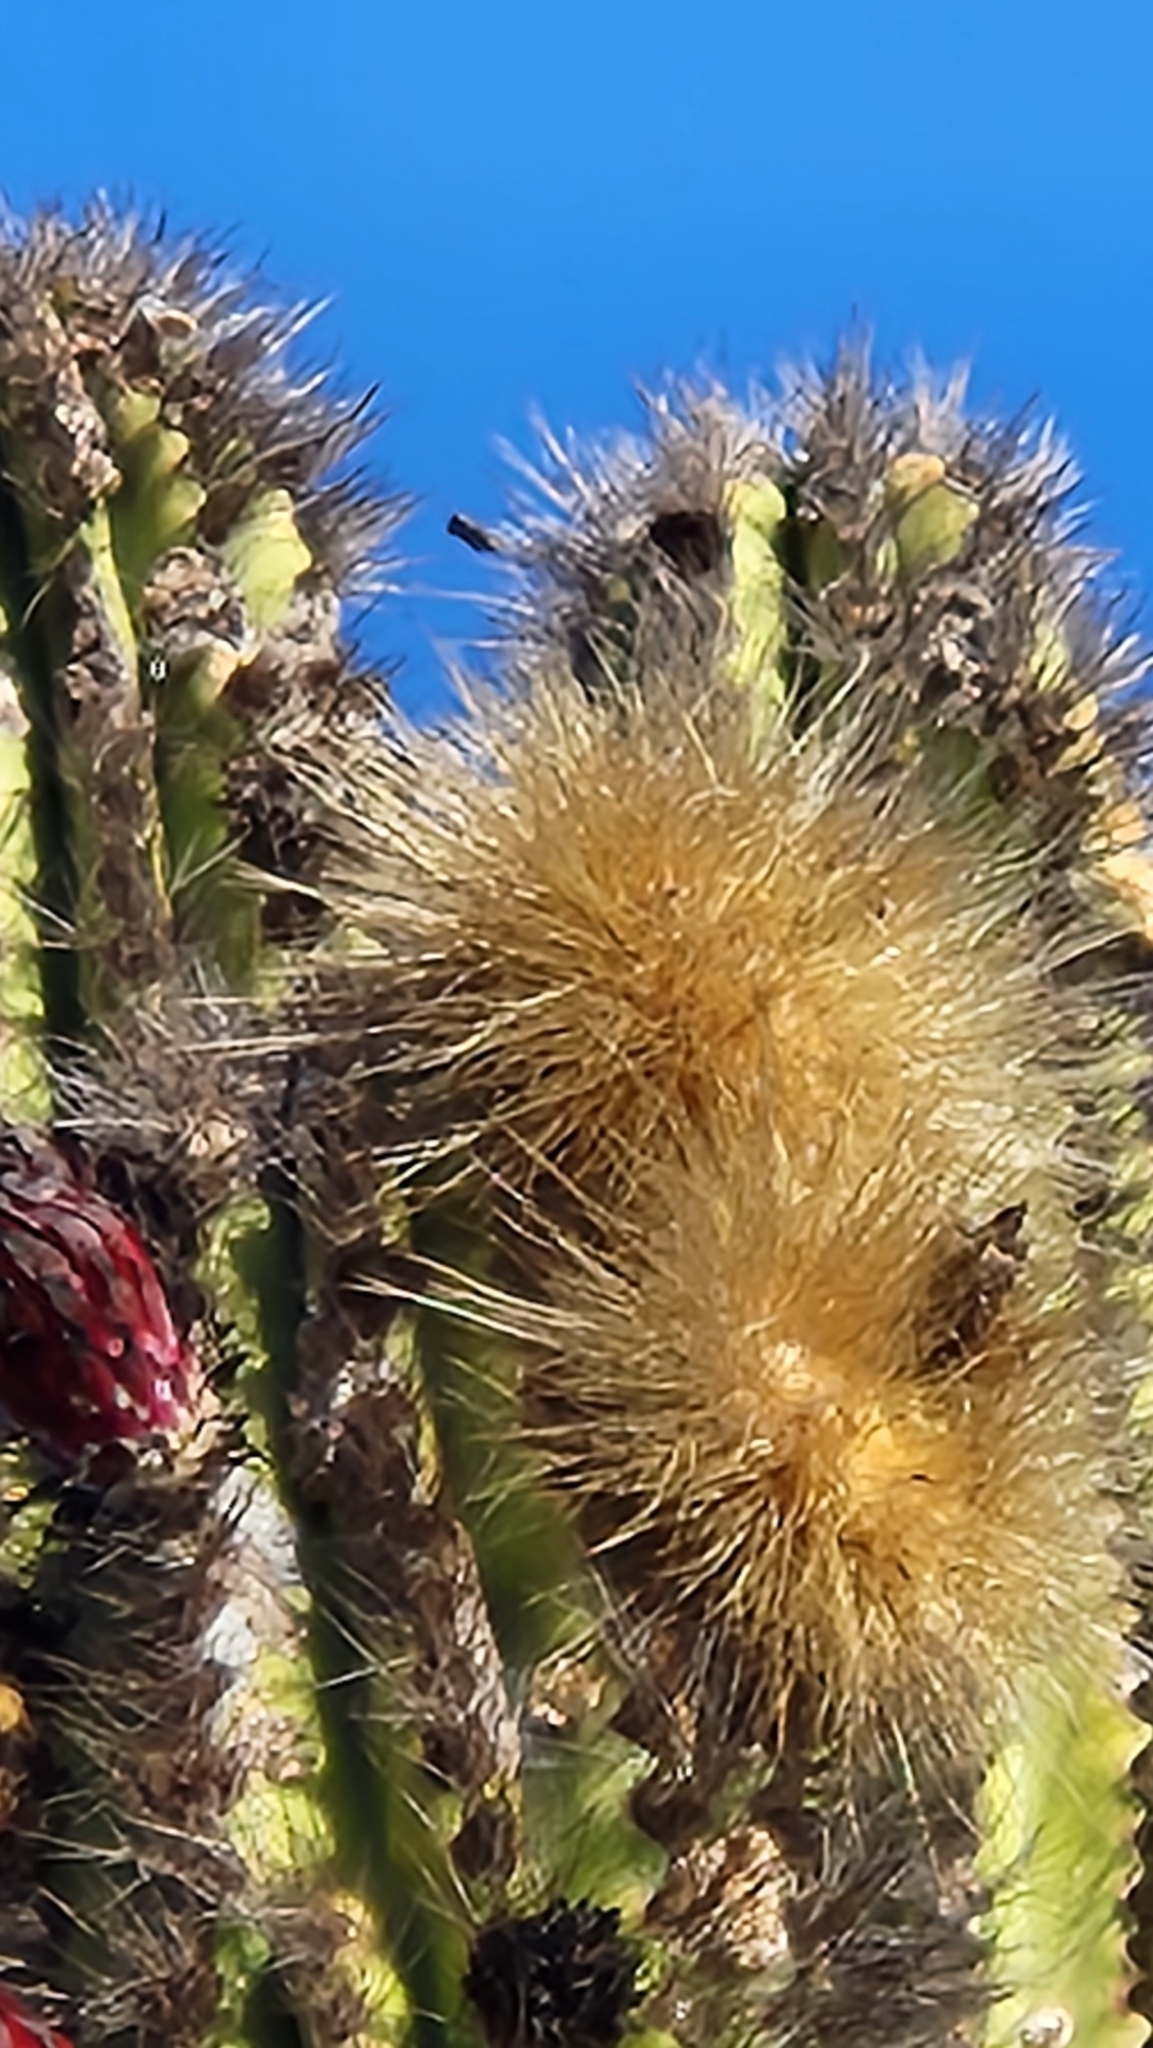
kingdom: Plantae
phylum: Tracheophyta
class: Magnoliopsida
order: Caryophyllales
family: Cactaceae
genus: Pachycereus
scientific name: Pachycereus pecten-aboriginum
